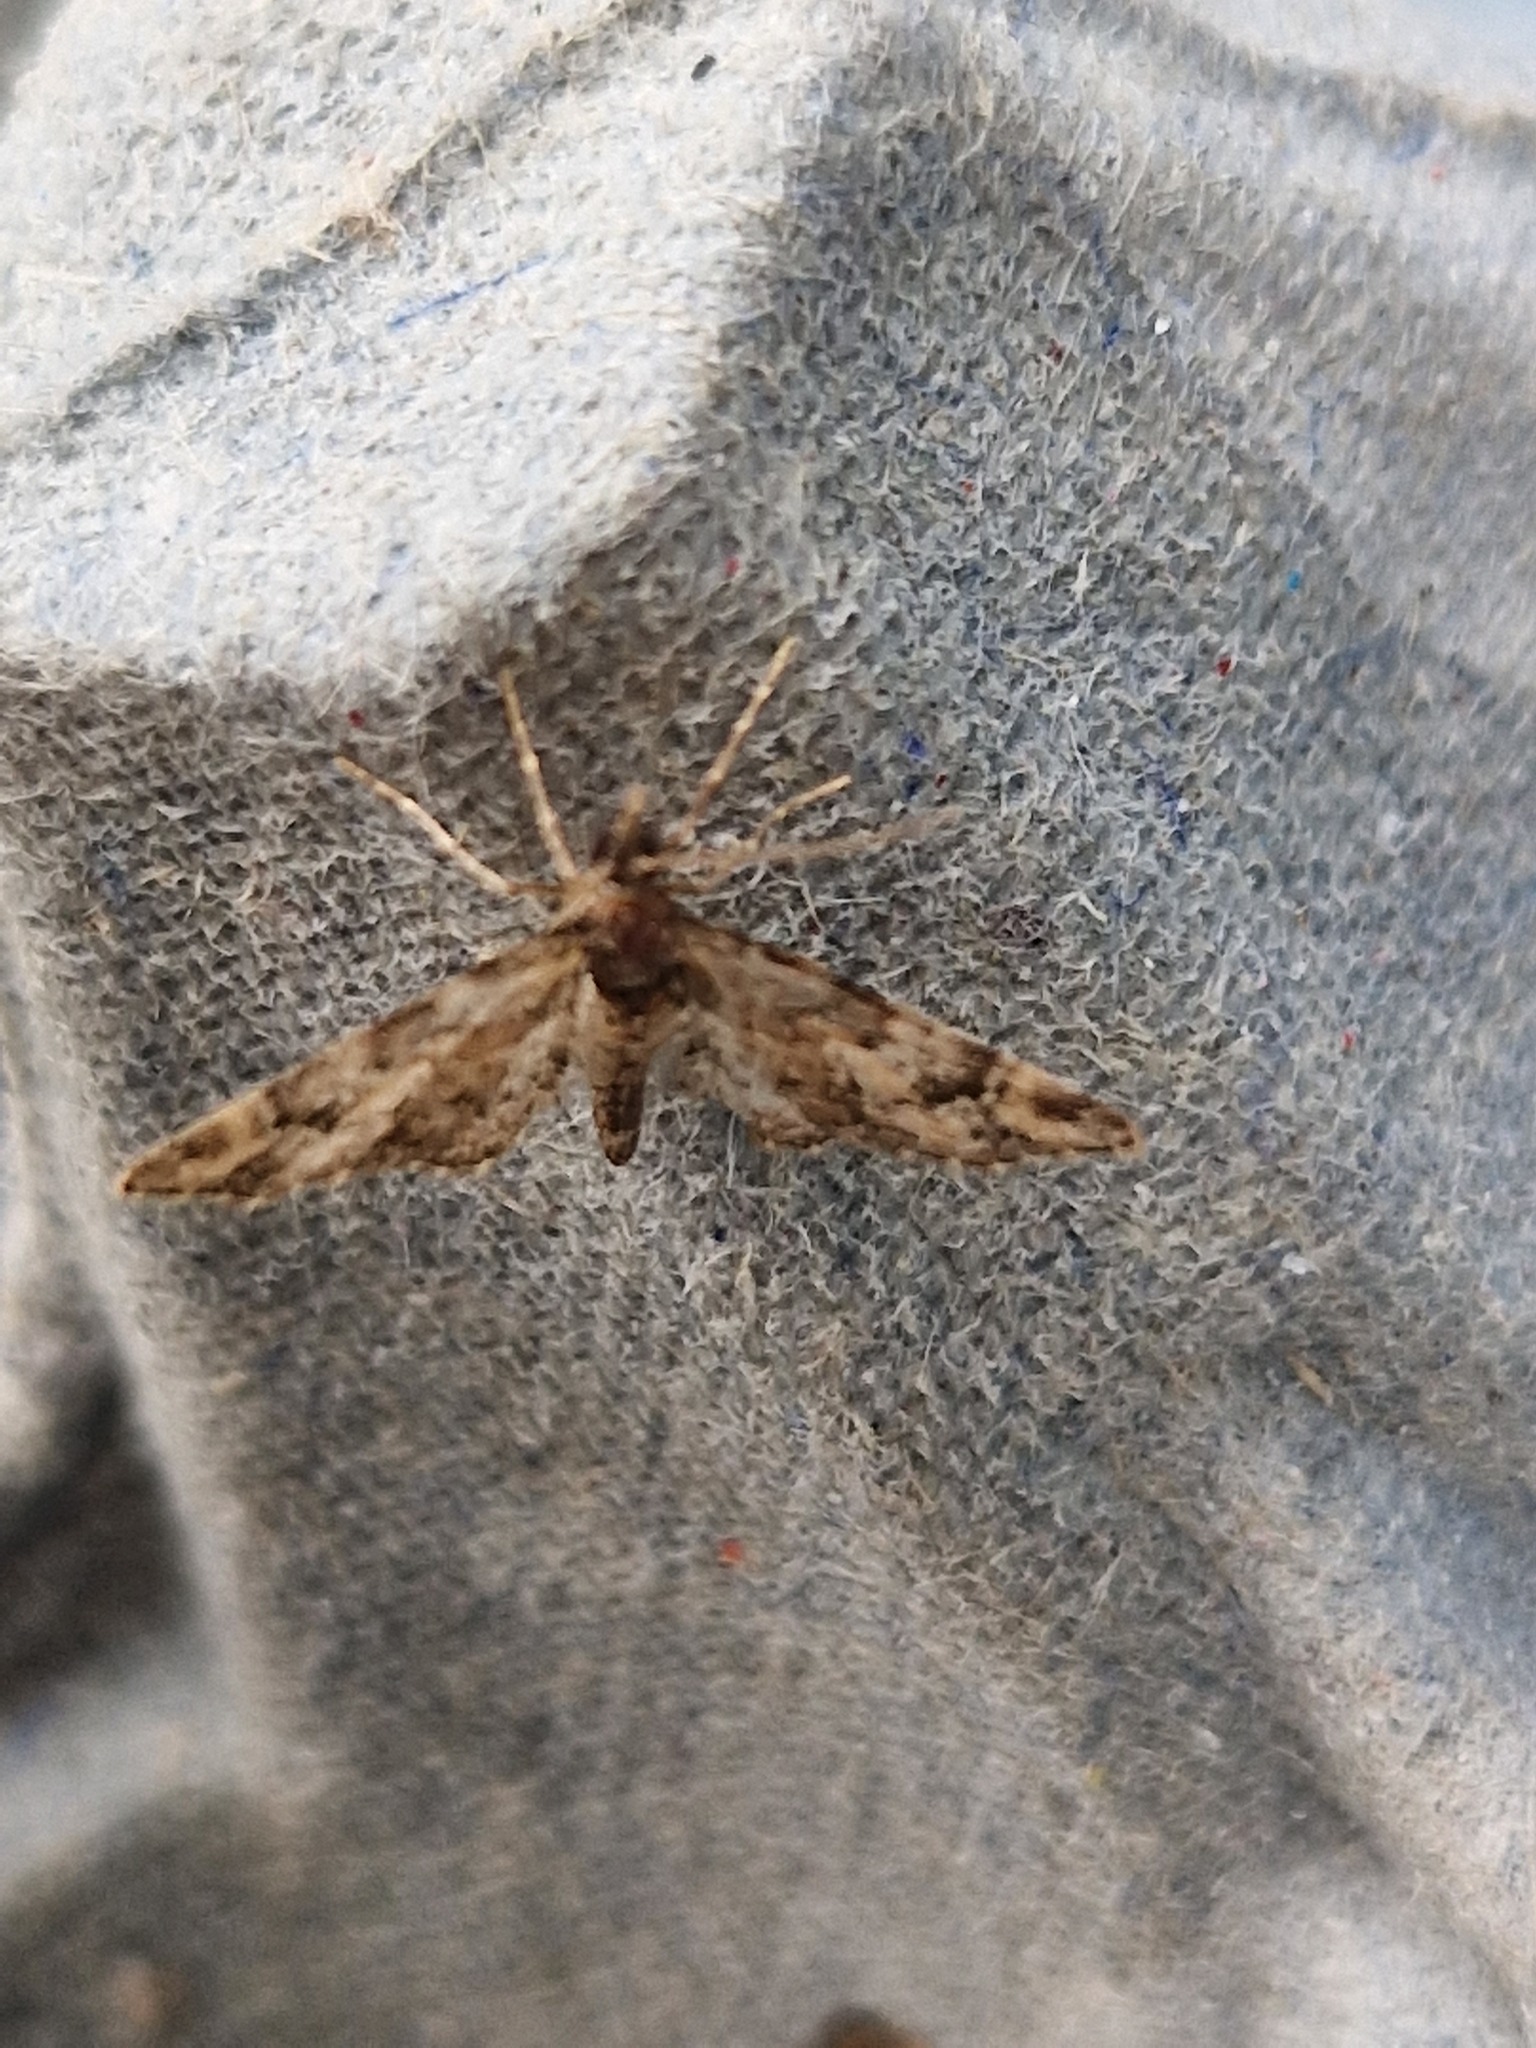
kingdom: Animalia
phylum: Arthropoda
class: Insecta
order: Lepidoptera
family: Geometridae
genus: Gymnoscelis
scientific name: Gymnoscelis rufifasciata
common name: Double-striped pug
